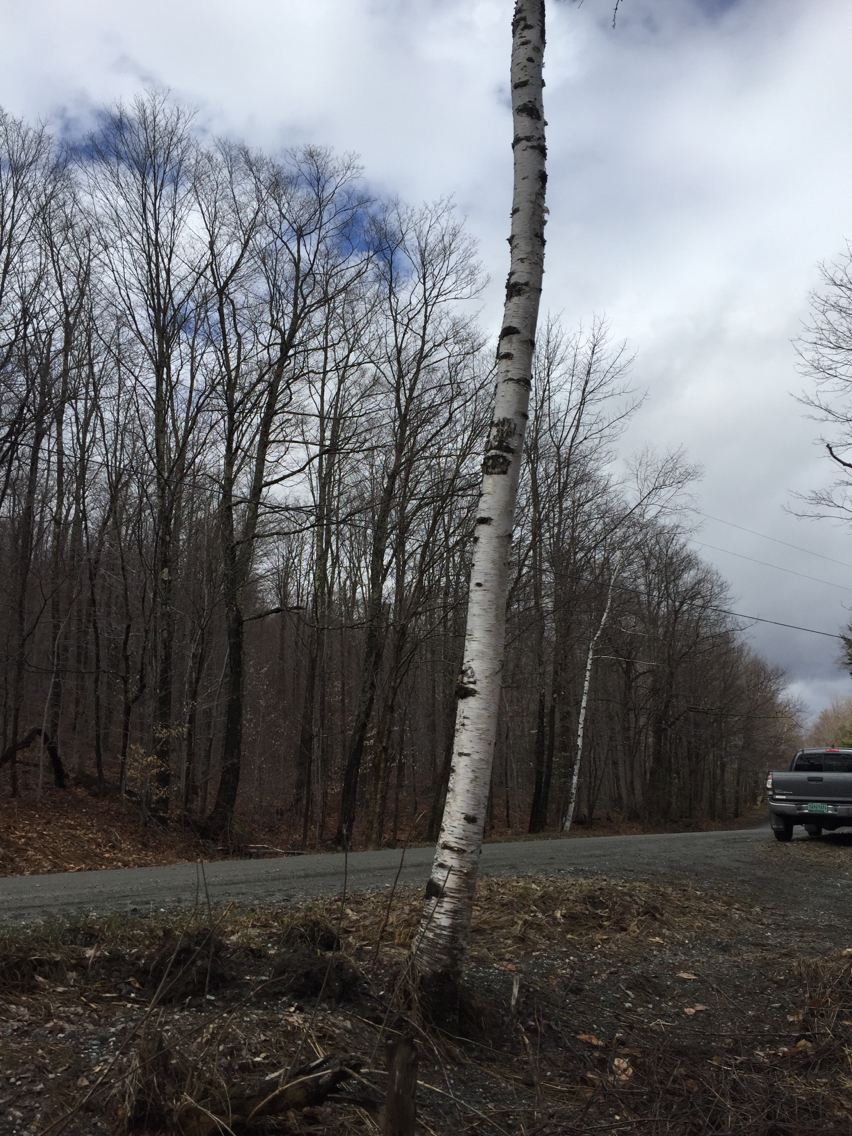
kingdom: Plantae
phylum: Tracheophyta
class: Magnoliopsida
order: Fagales
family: Betulaceae
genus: Betula
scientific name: Betula papyrifera
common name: Paper birch
